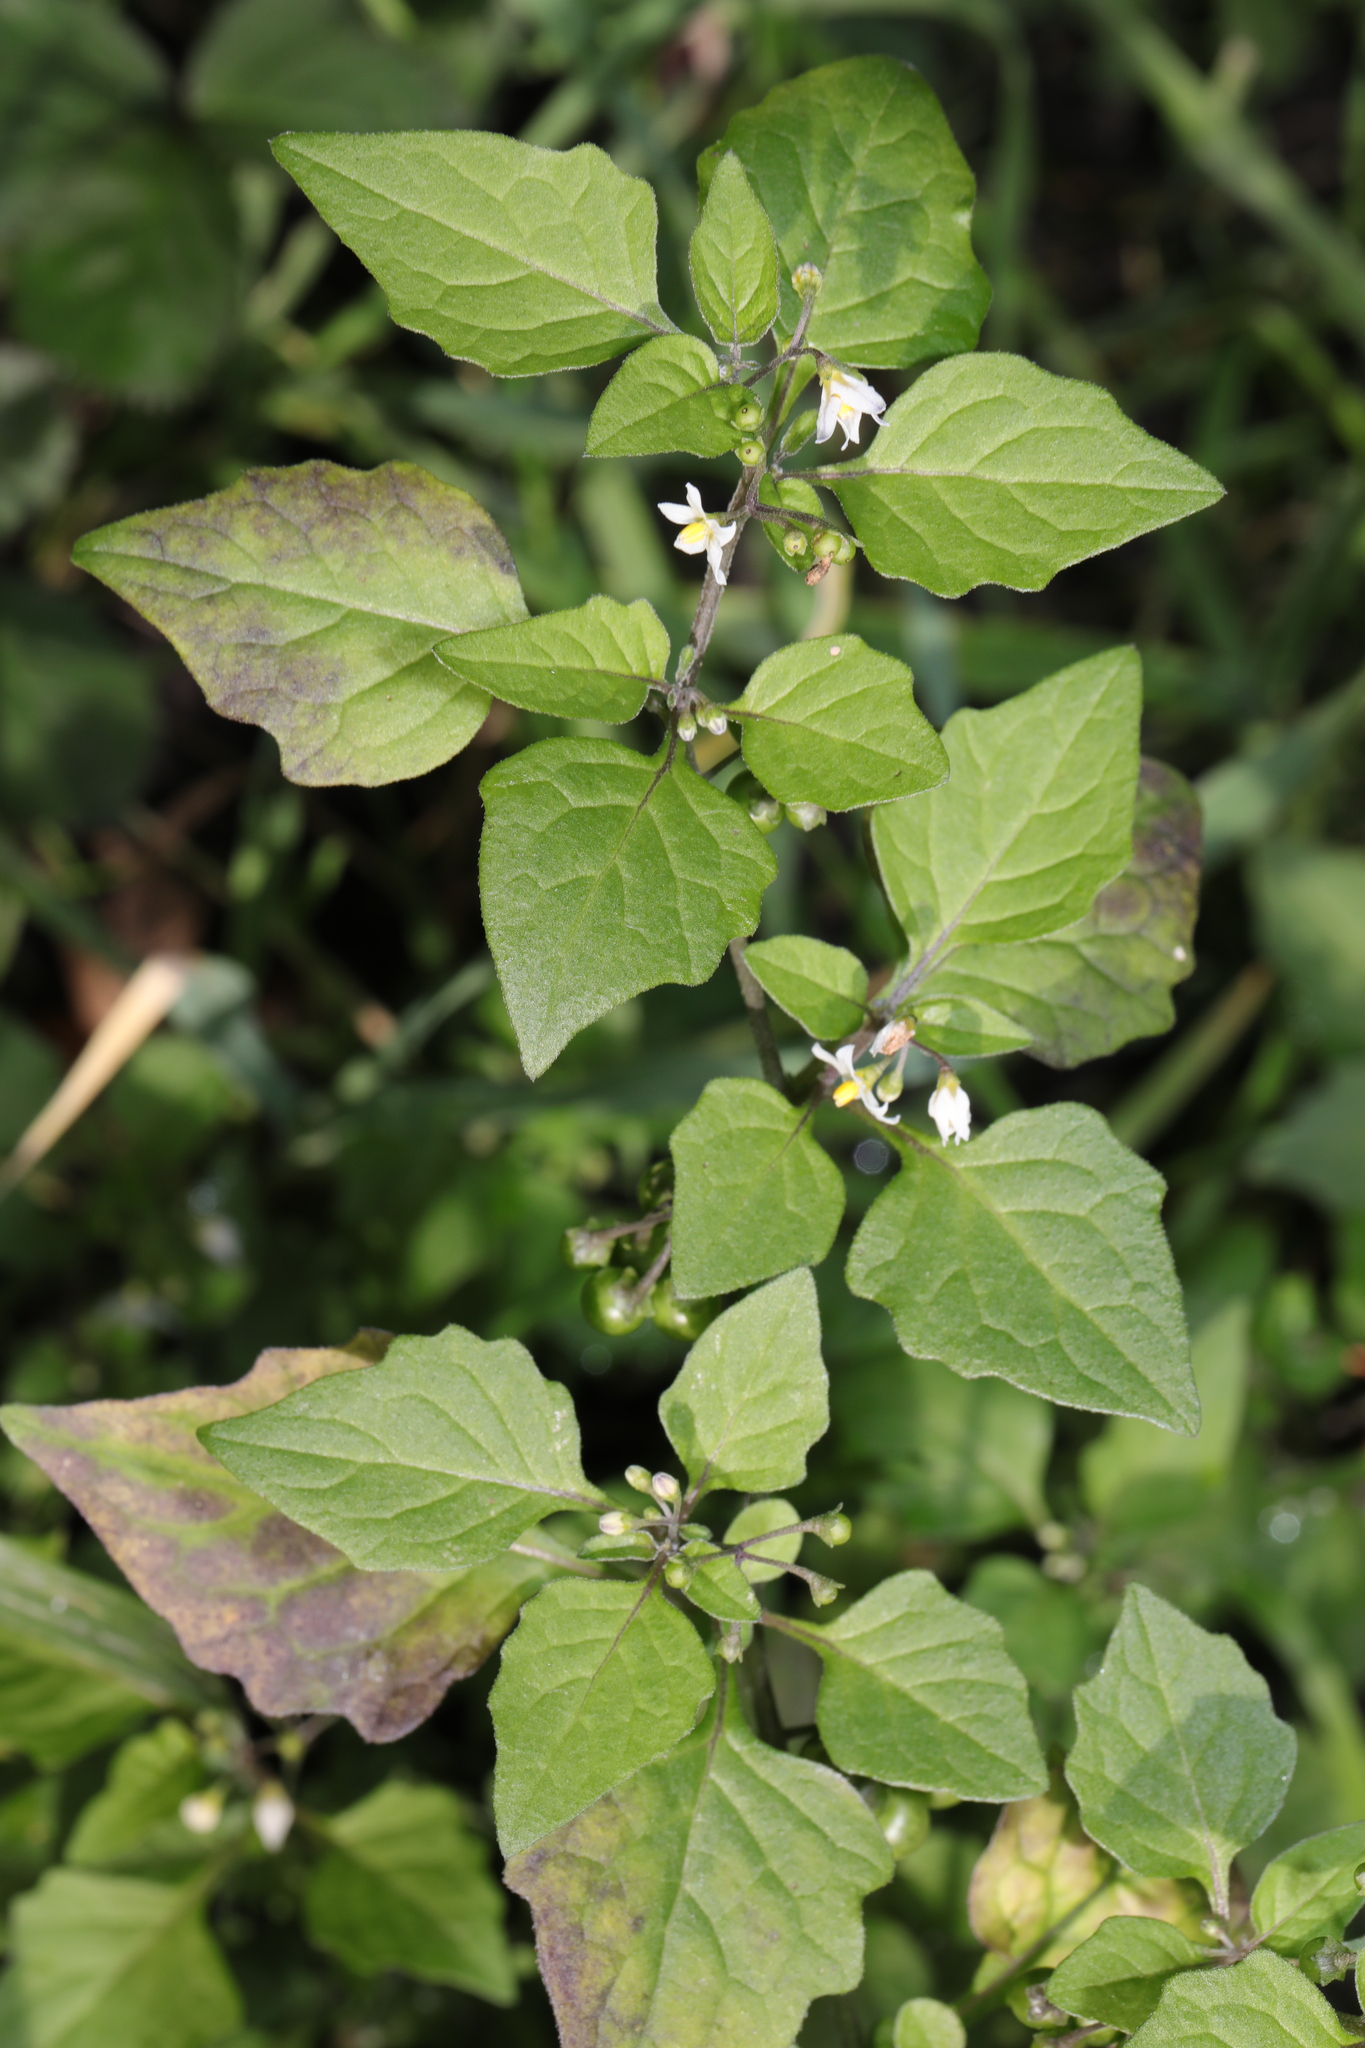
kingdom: Plantae
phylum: Tracheophyta
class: Magnoliopsida
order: Solanales
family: Solanaceae
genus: Solanum
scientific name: Solanum nigrum
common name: Black nightshade
